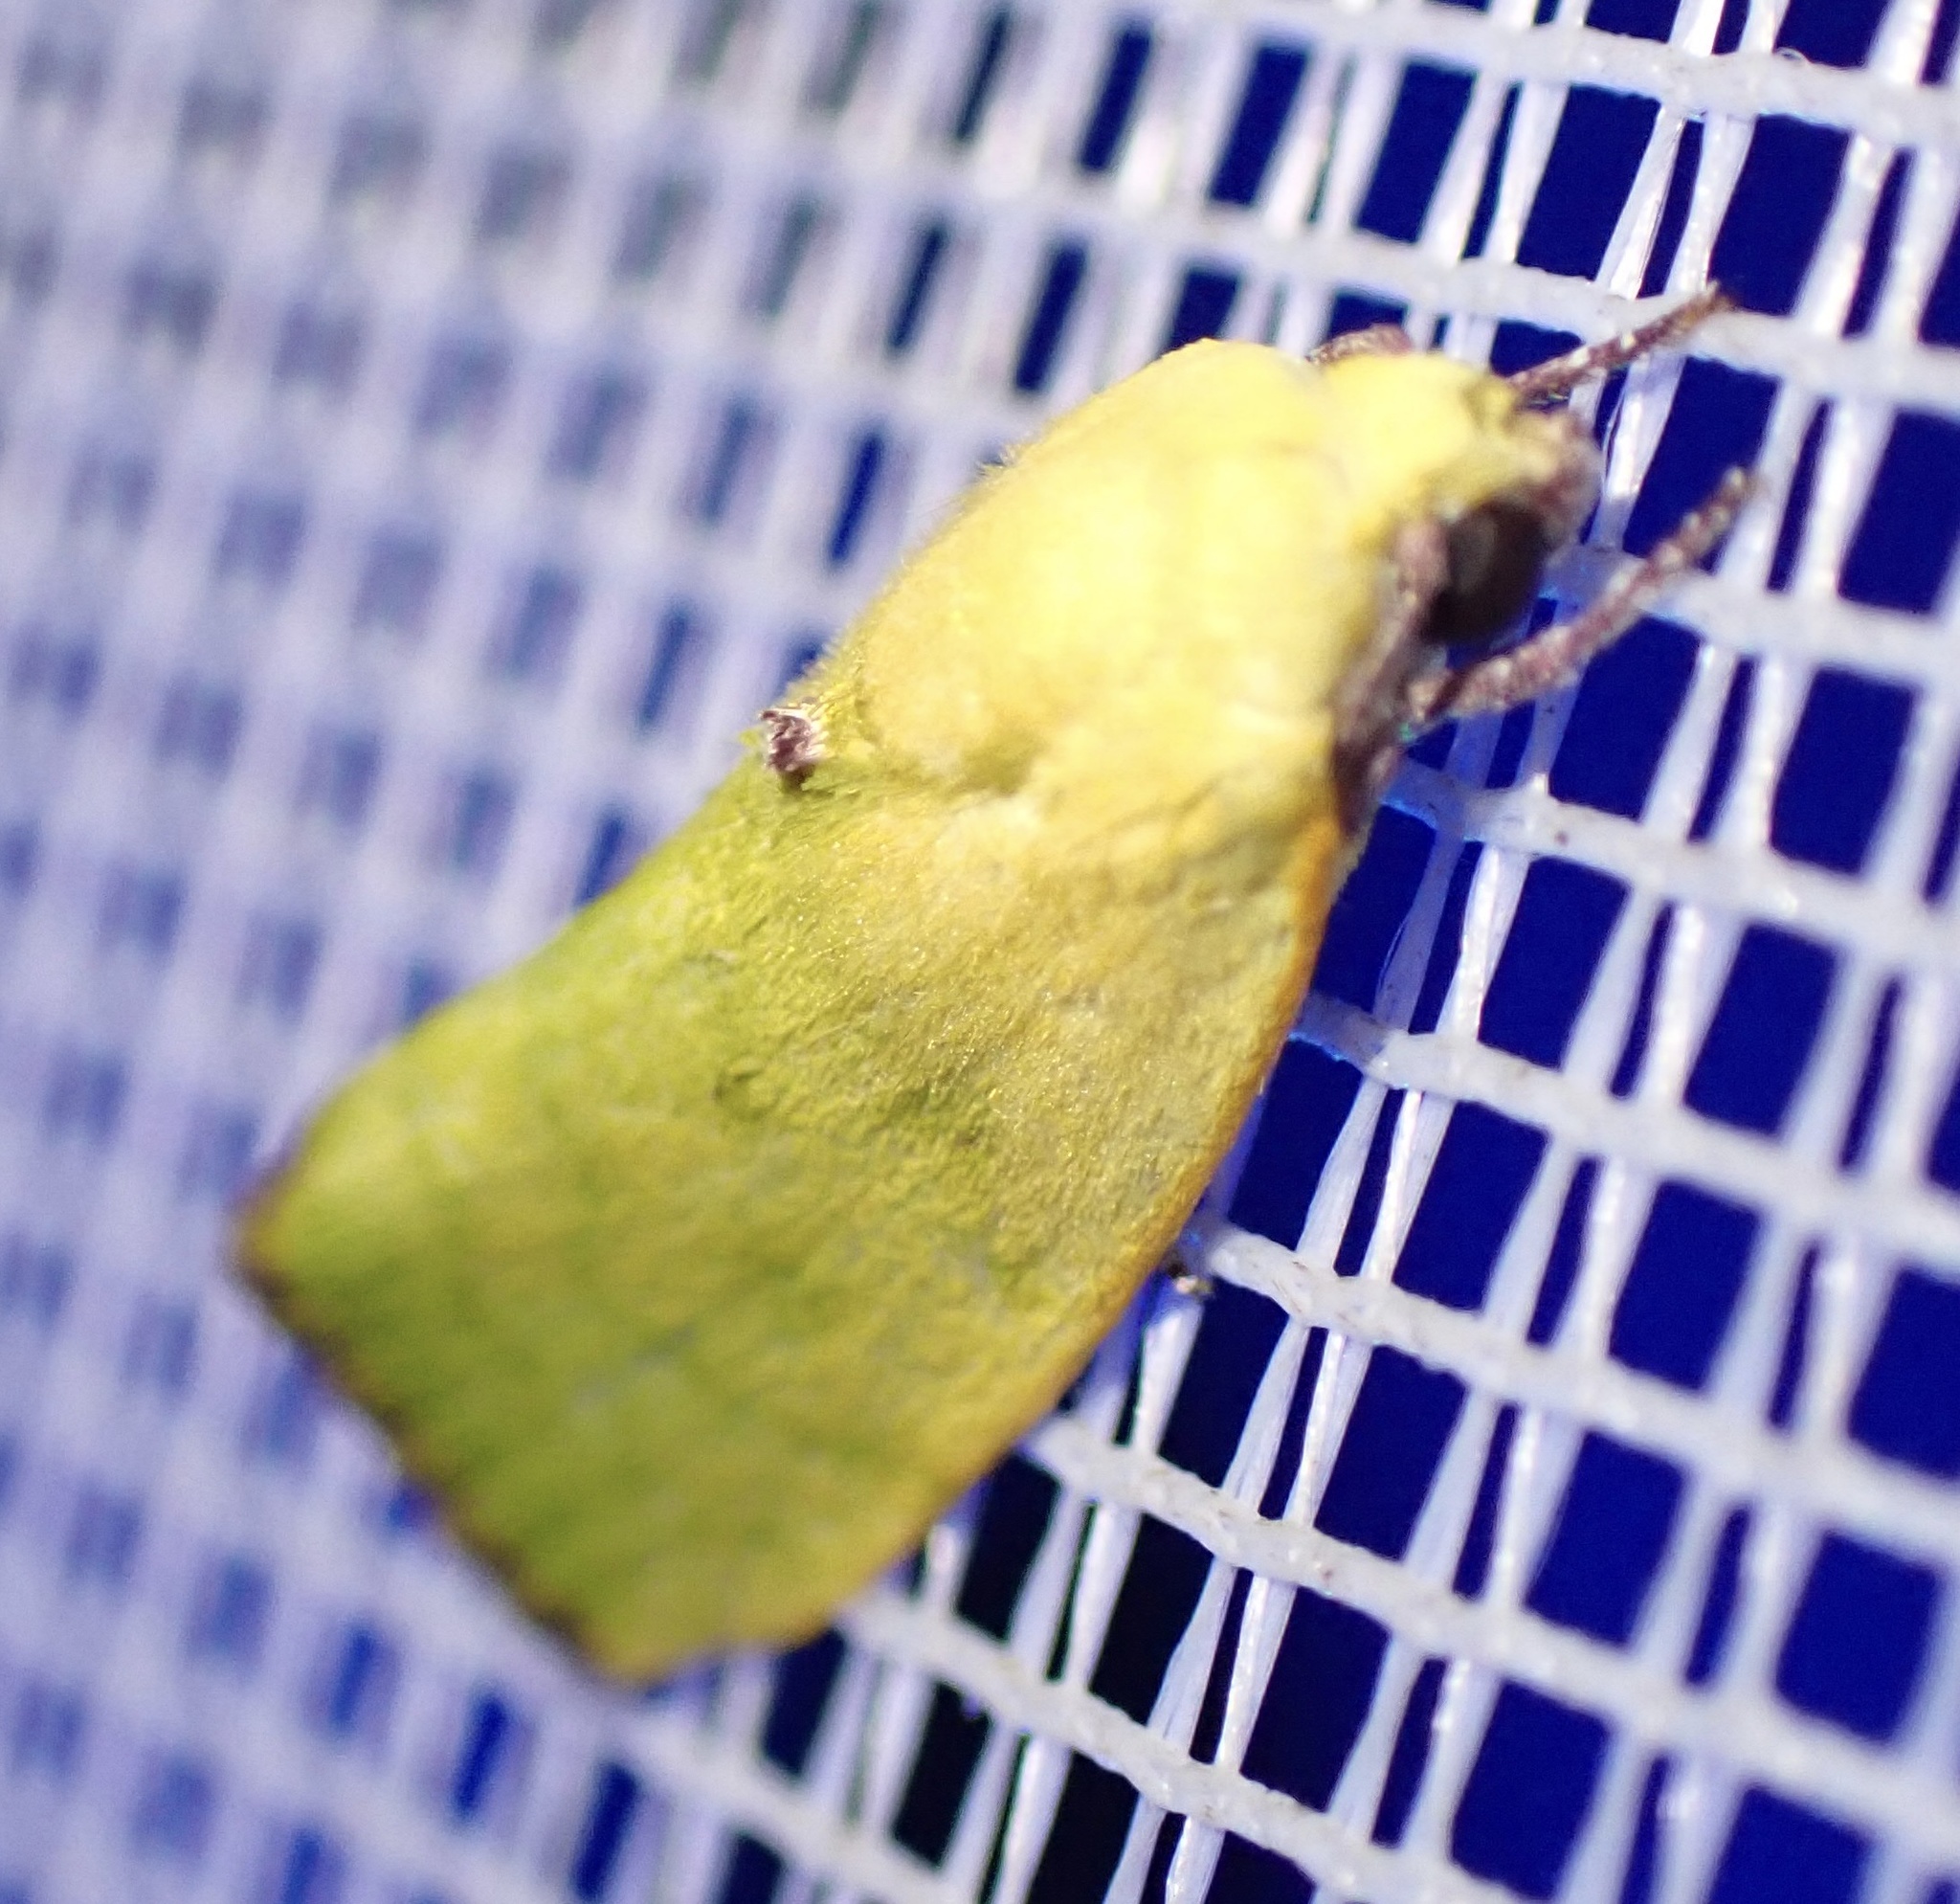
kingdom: Animalia
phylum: Arthropoda
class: Insecta
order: Lepidoptera
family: Nolidae
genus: Earias
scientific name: Earias biplaga
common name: Spiny bollworm
